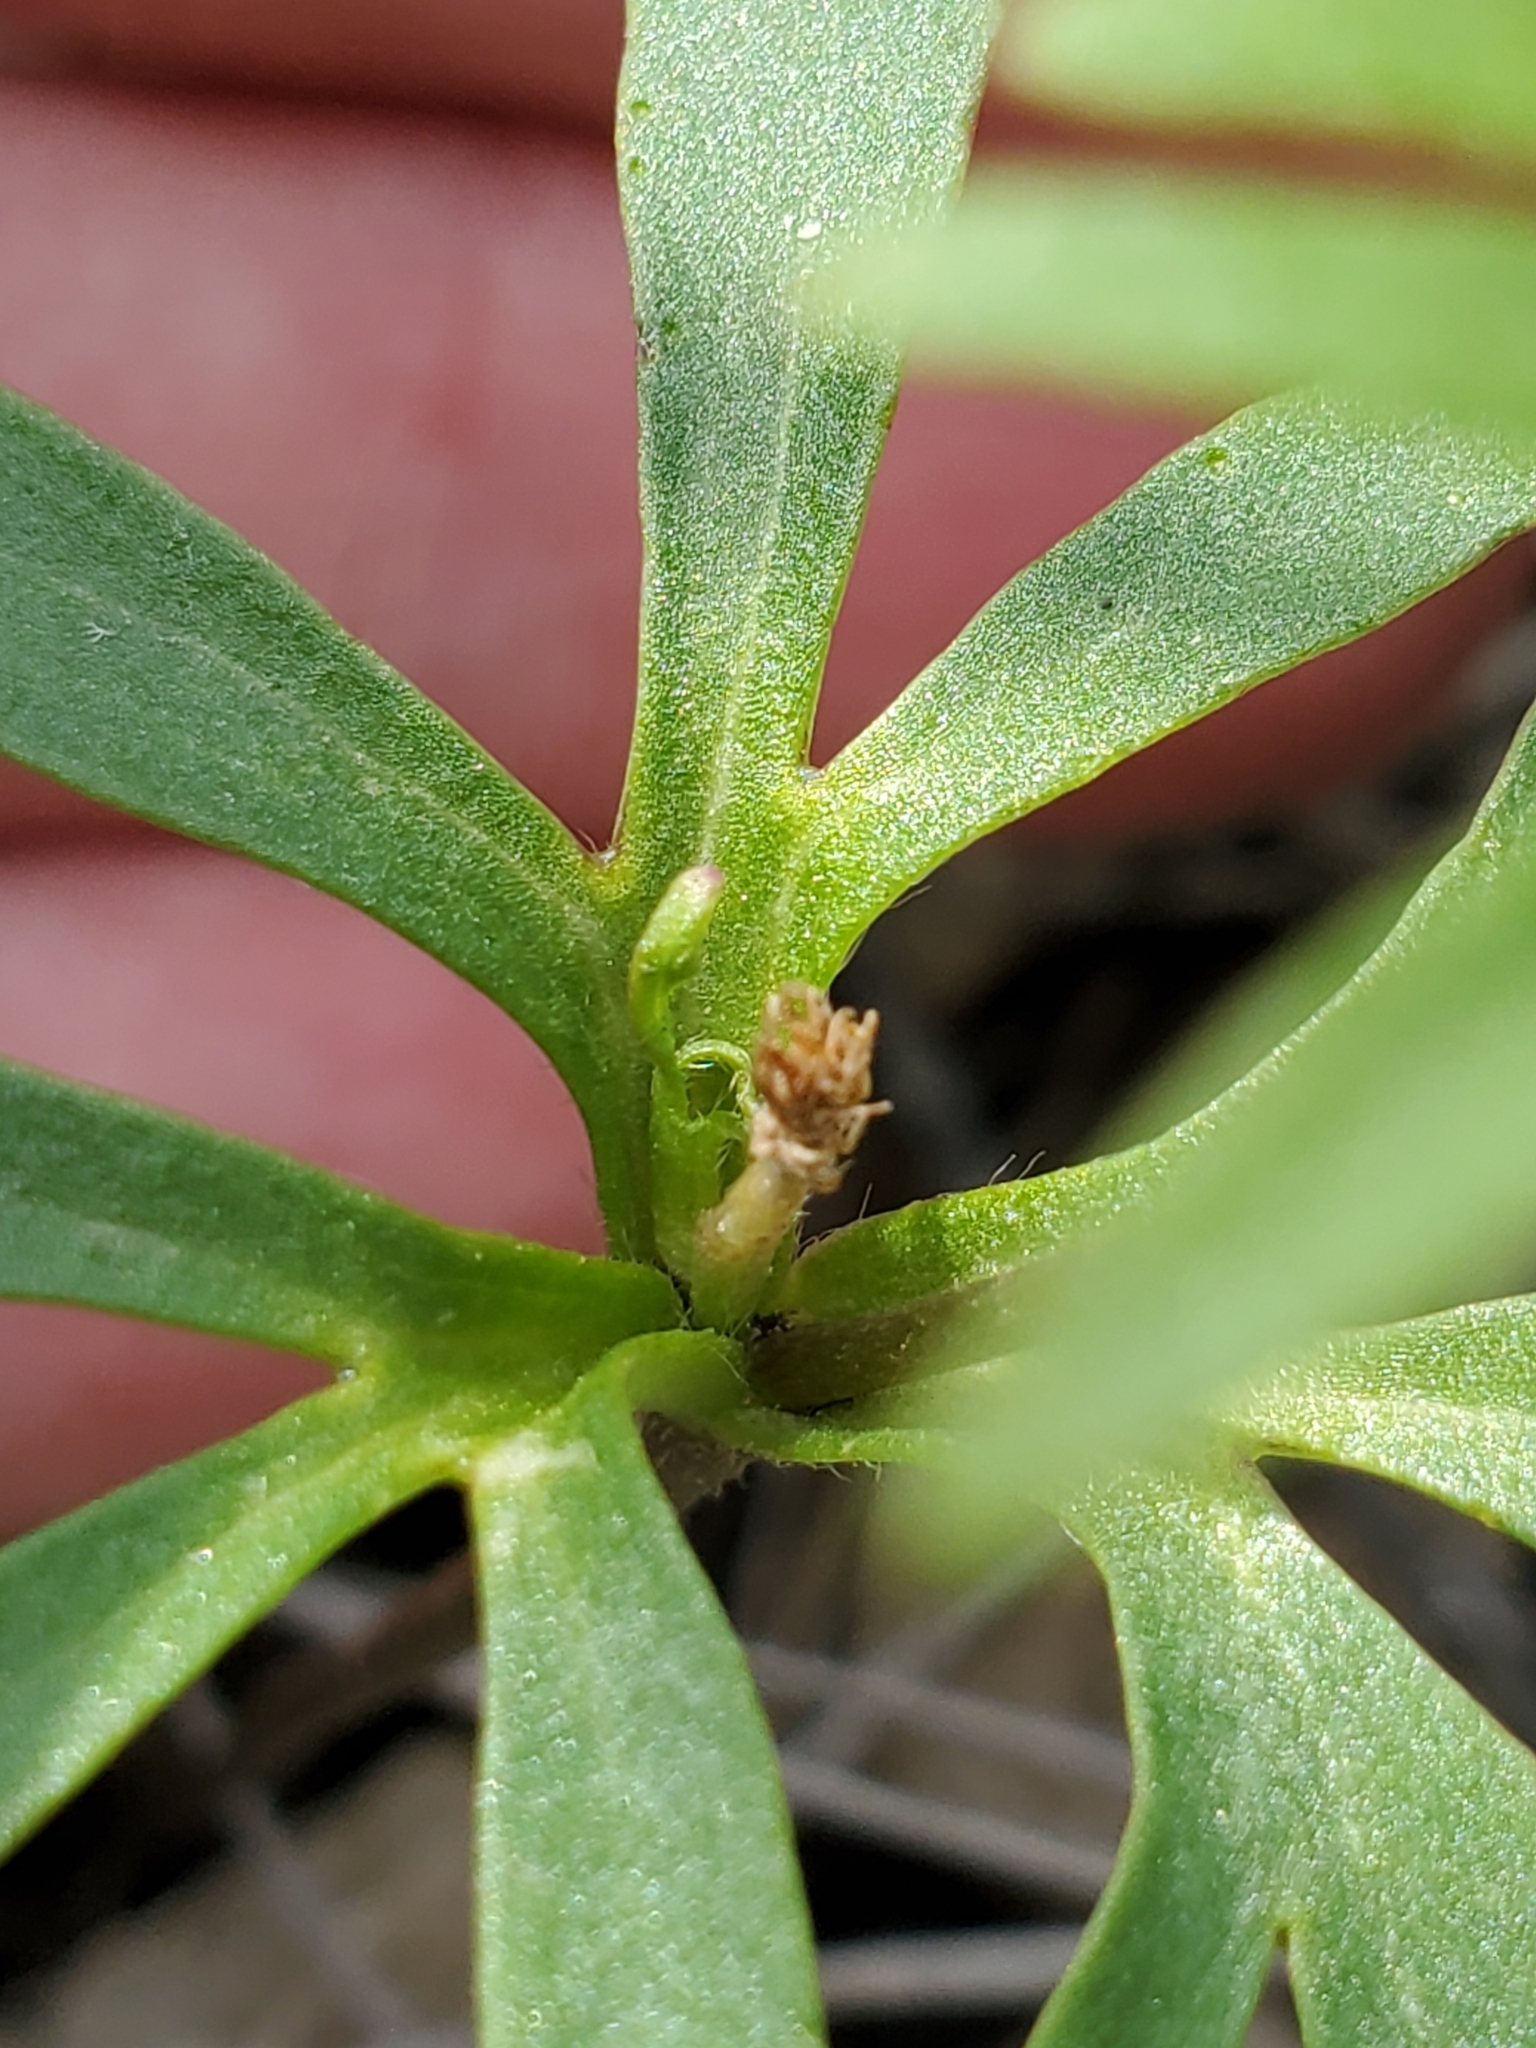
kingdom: Plantae
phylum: Tracheophyta
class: Magnoliopsida
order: Ranunculales
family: Ranunculaceae
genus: Anemone
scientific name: Anemone edwardsiana
